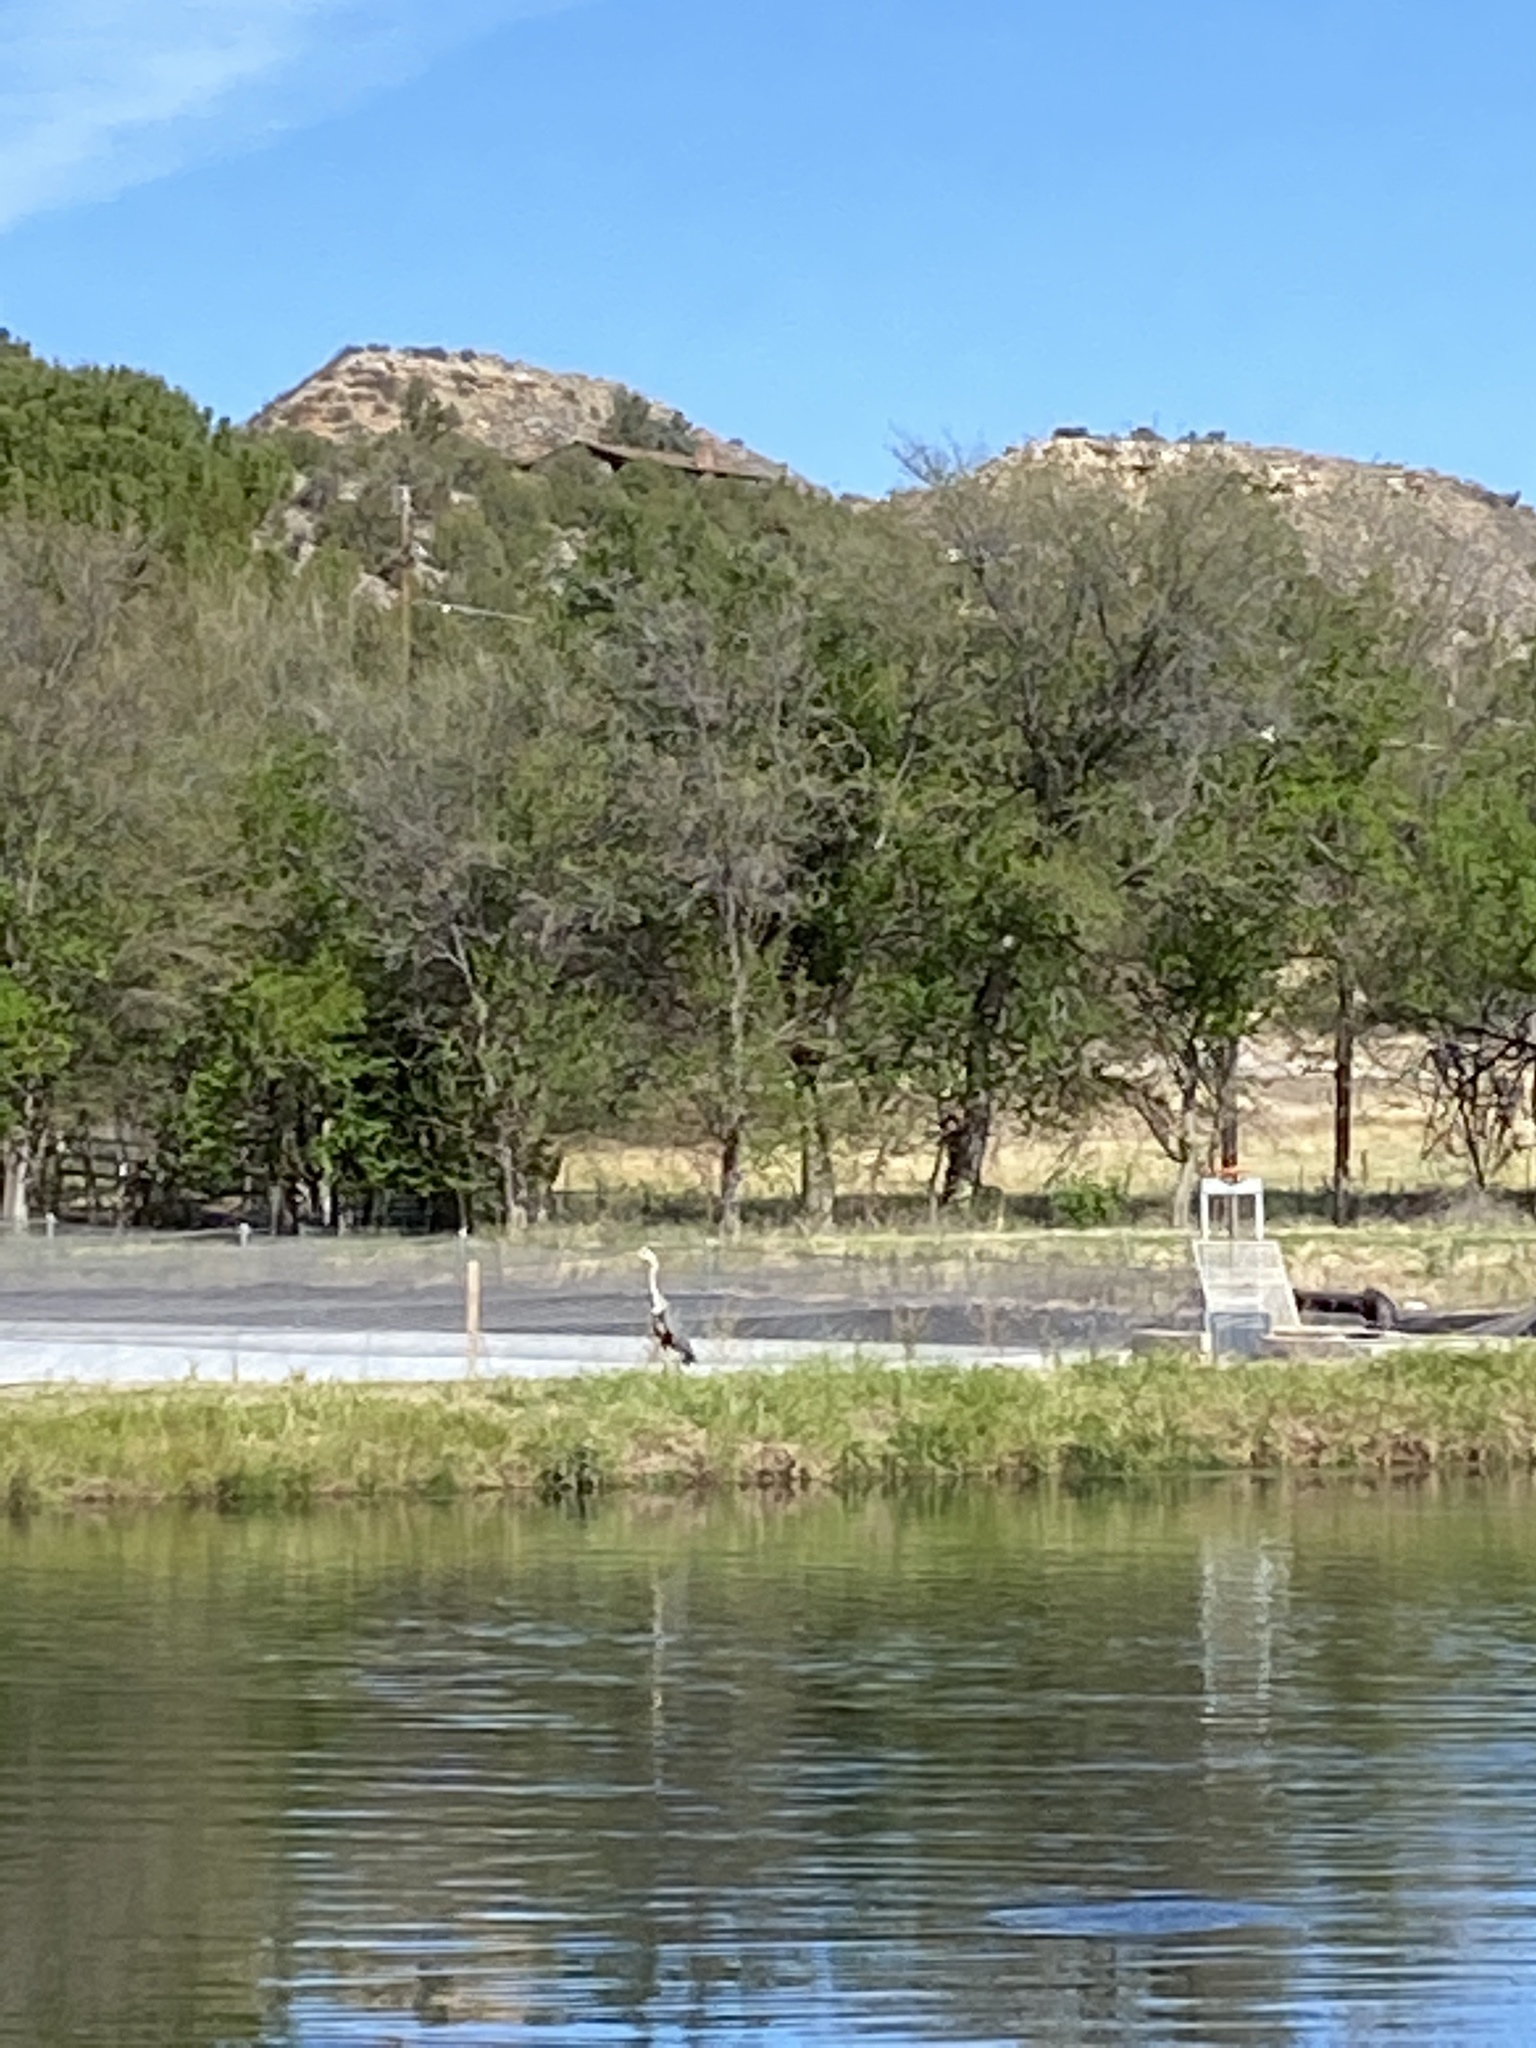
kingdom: Animalia
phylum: Chordata
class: Aves
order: Pelecaniformes
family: Ardeidae
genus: Ardea
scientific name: Ardea herodias
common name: Great blue heron
